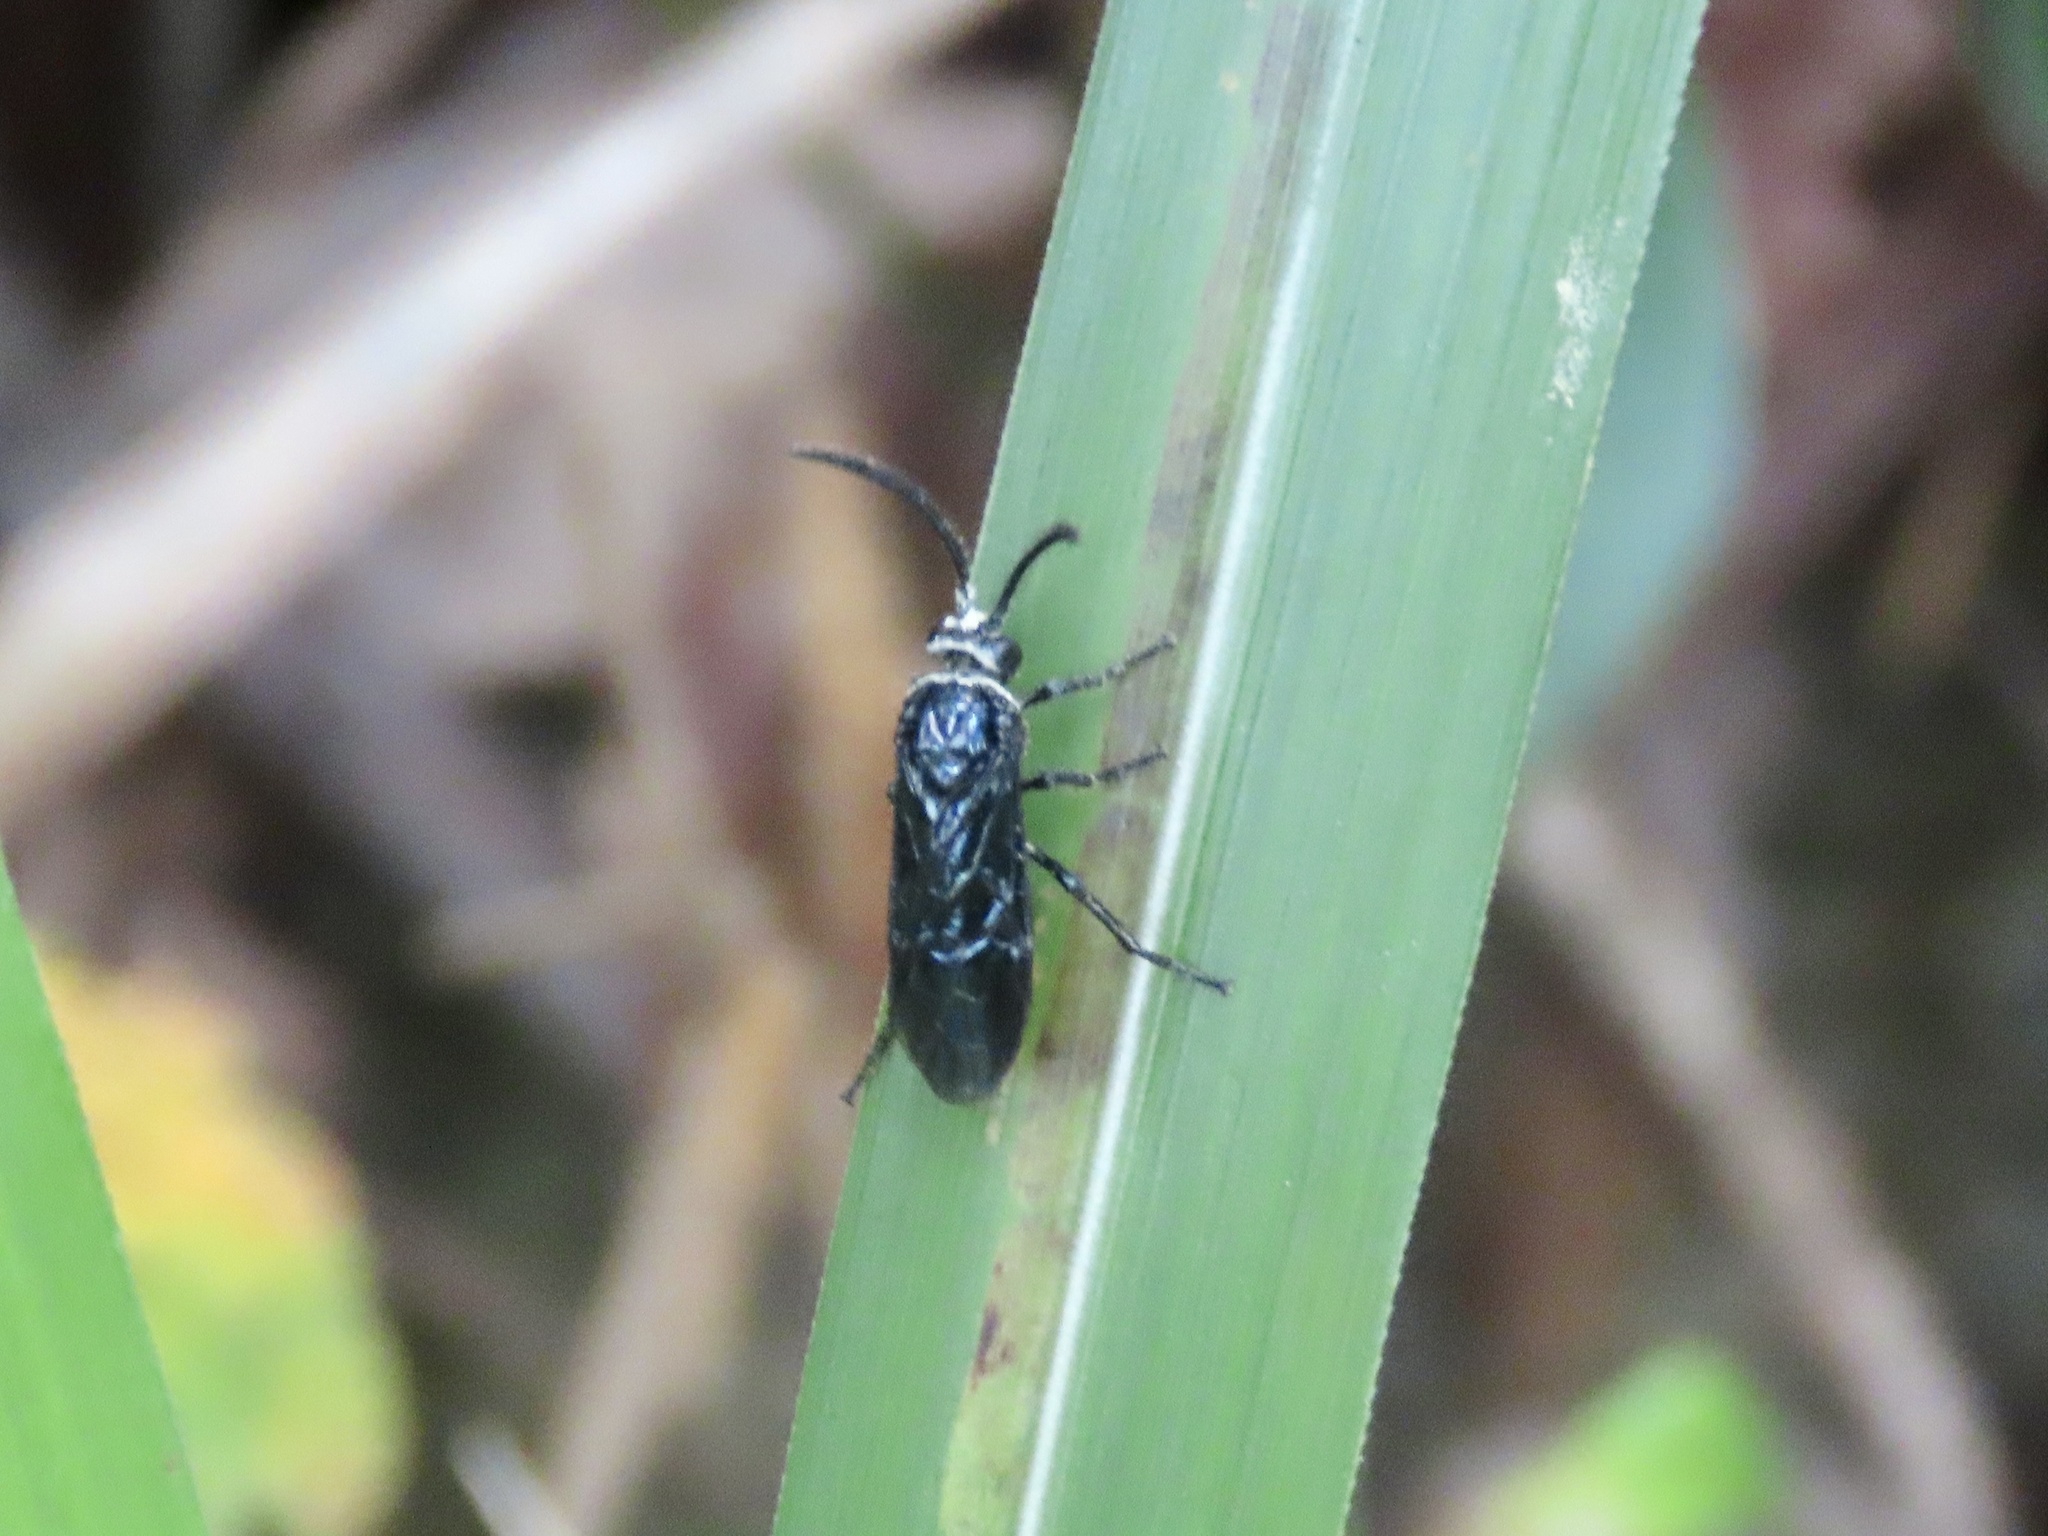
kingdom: Animalia
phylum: Arthropoda
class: Insecta
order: Hymenoptera
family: Argidae
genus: Arge
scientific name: Arge similis
